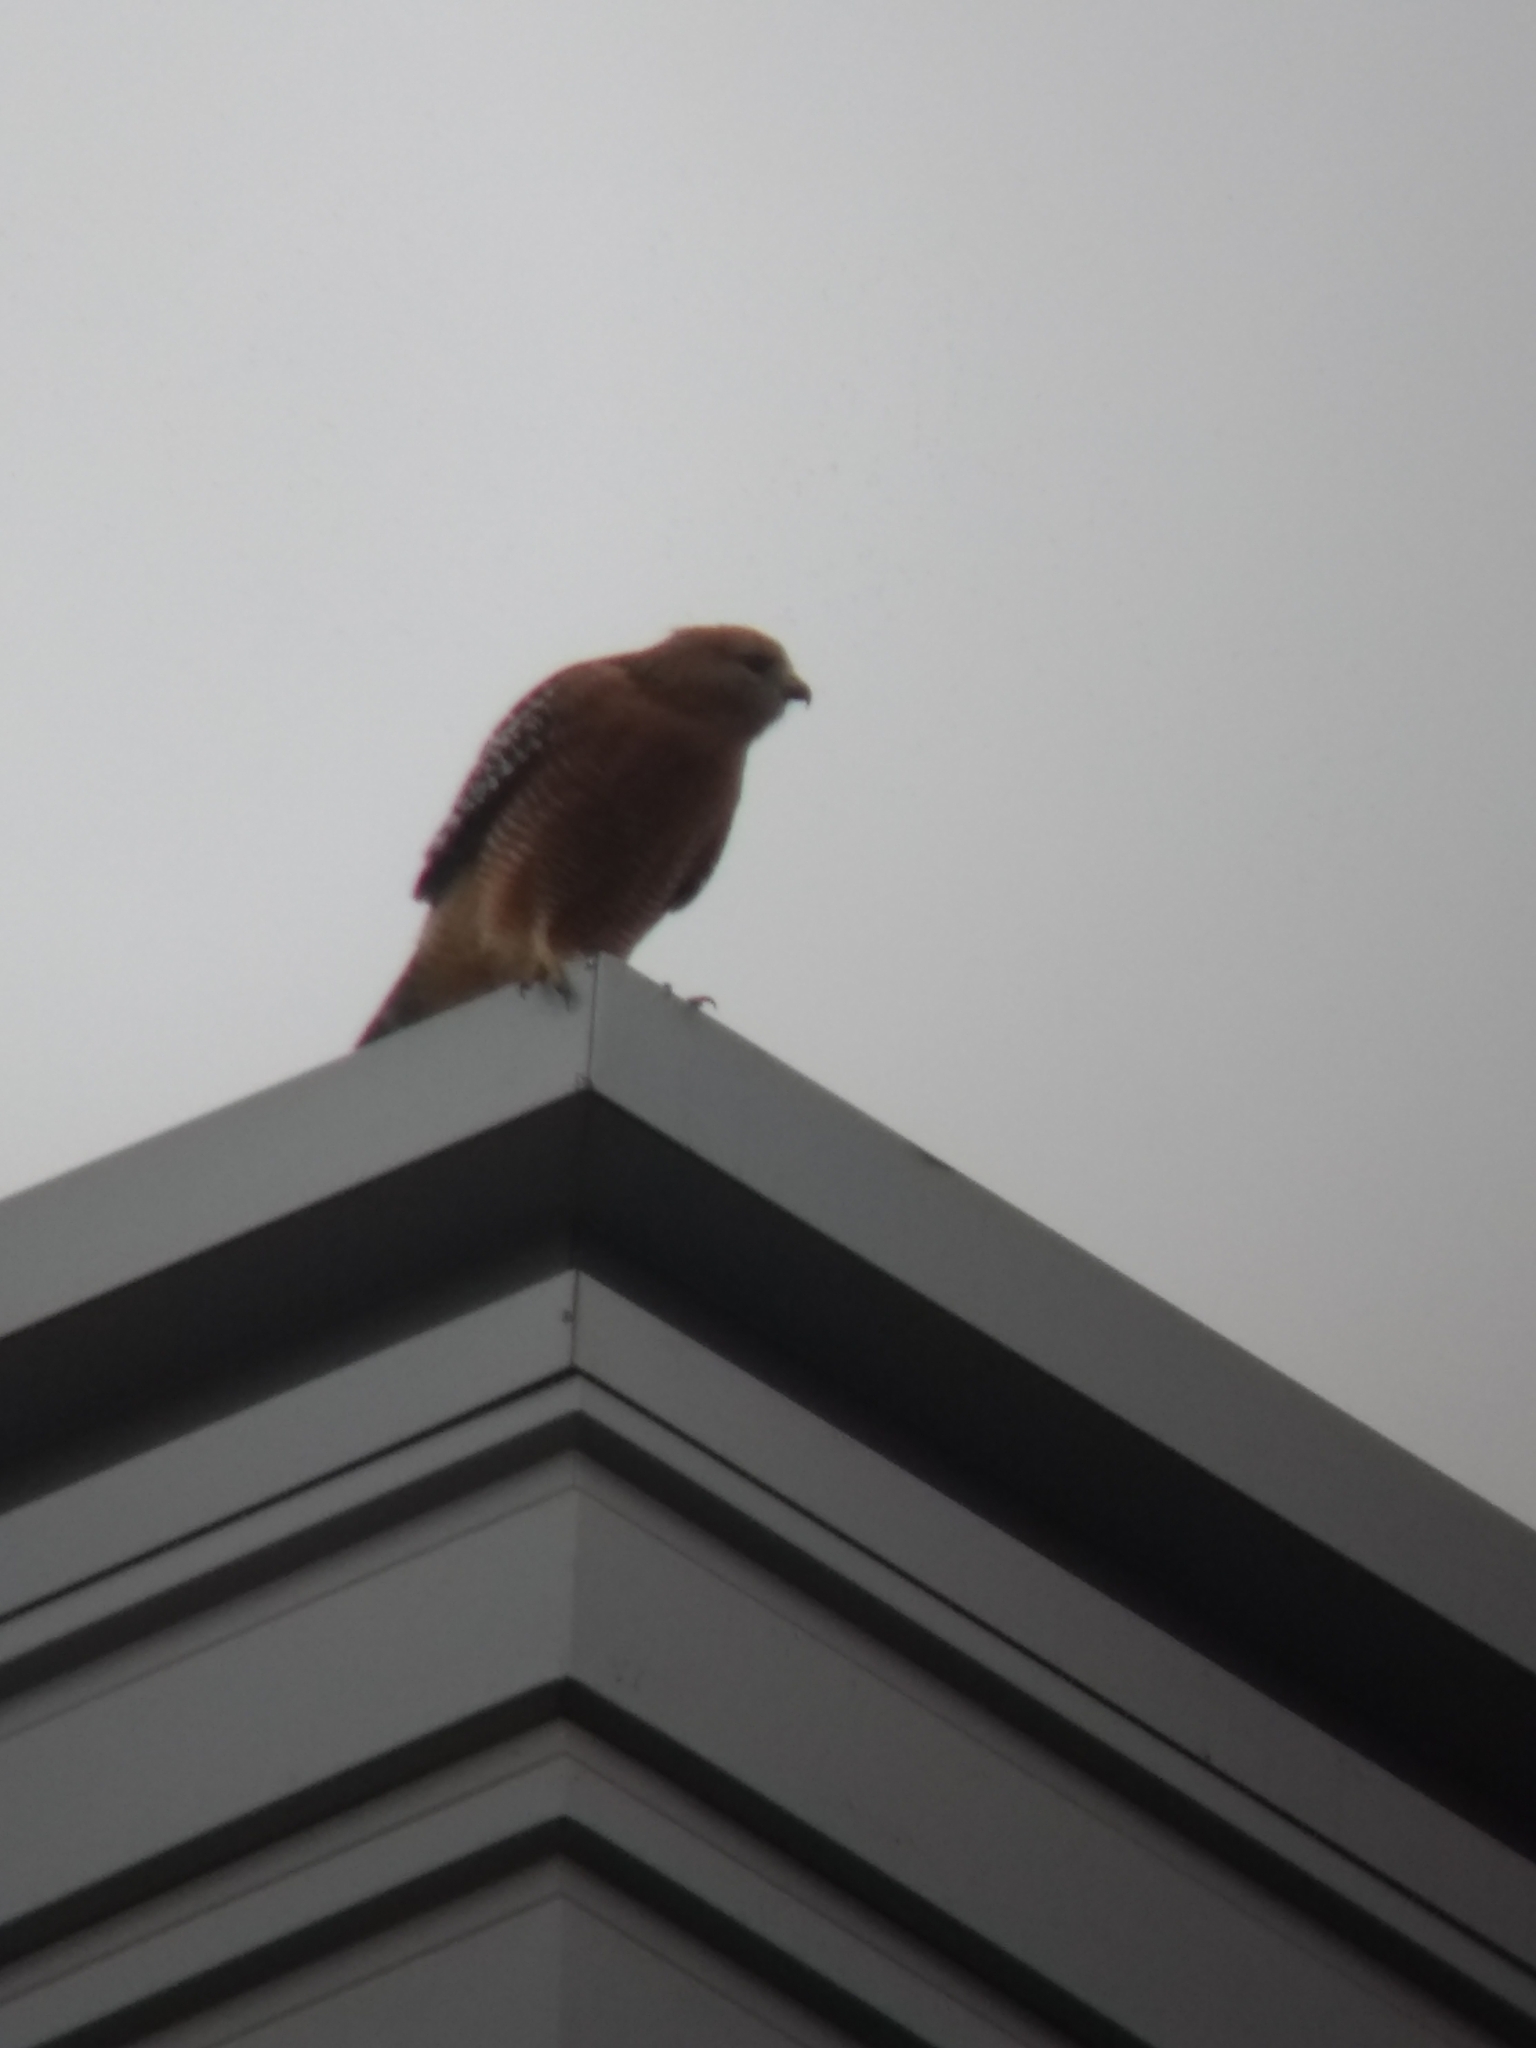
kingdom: Animalia
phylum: Chordata
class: Aves
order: Accipitriformes
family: Accipitridae
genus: Buteo
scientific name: Buteo lineatus
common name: Red-shouldered hawk
